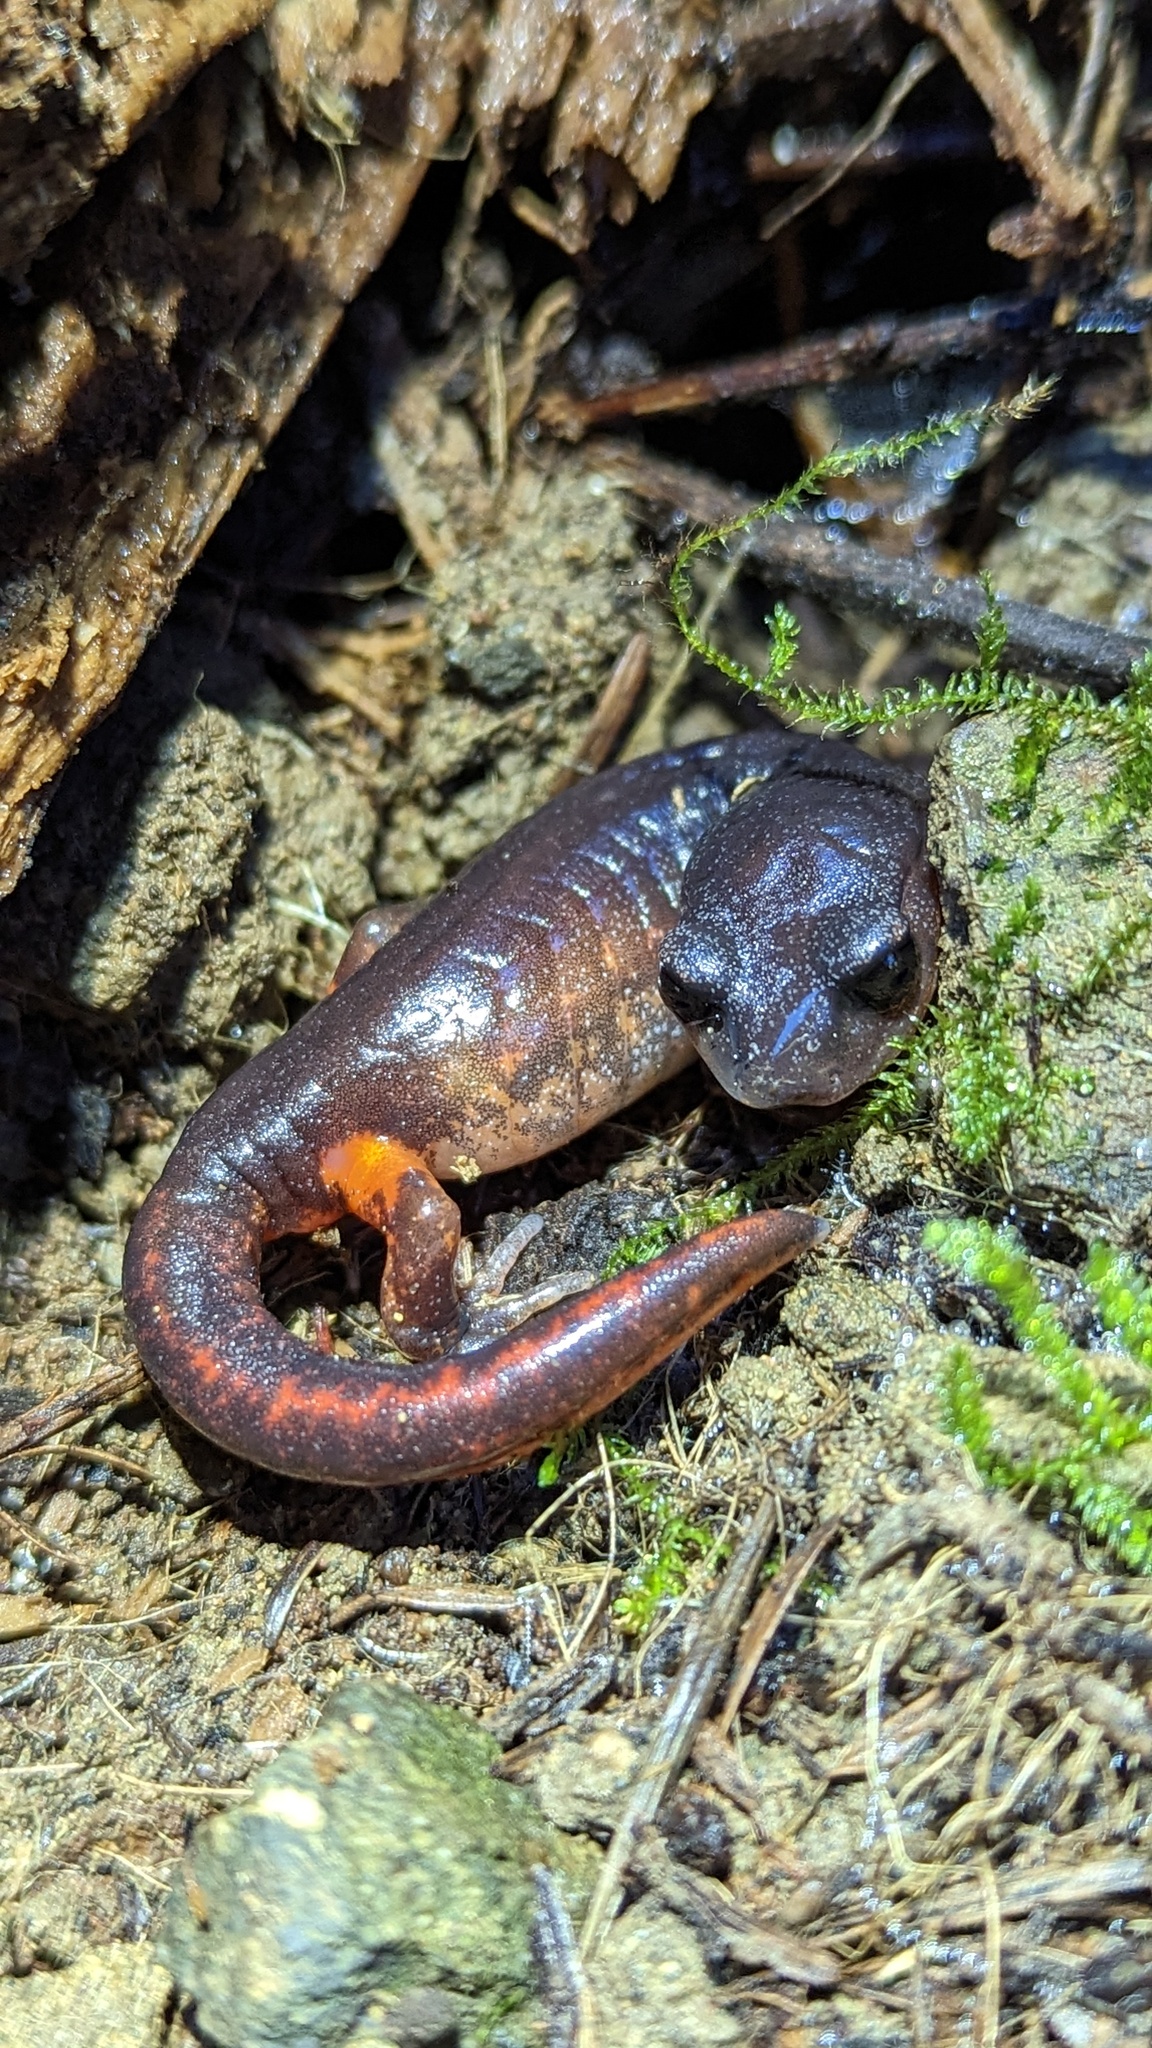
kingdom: Animalia
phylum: Chordata
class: Amphibia
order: Caudata
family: Plethodontidae
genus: Ensatina
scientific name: Ensatina eschscholtzii
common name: Ensatina
